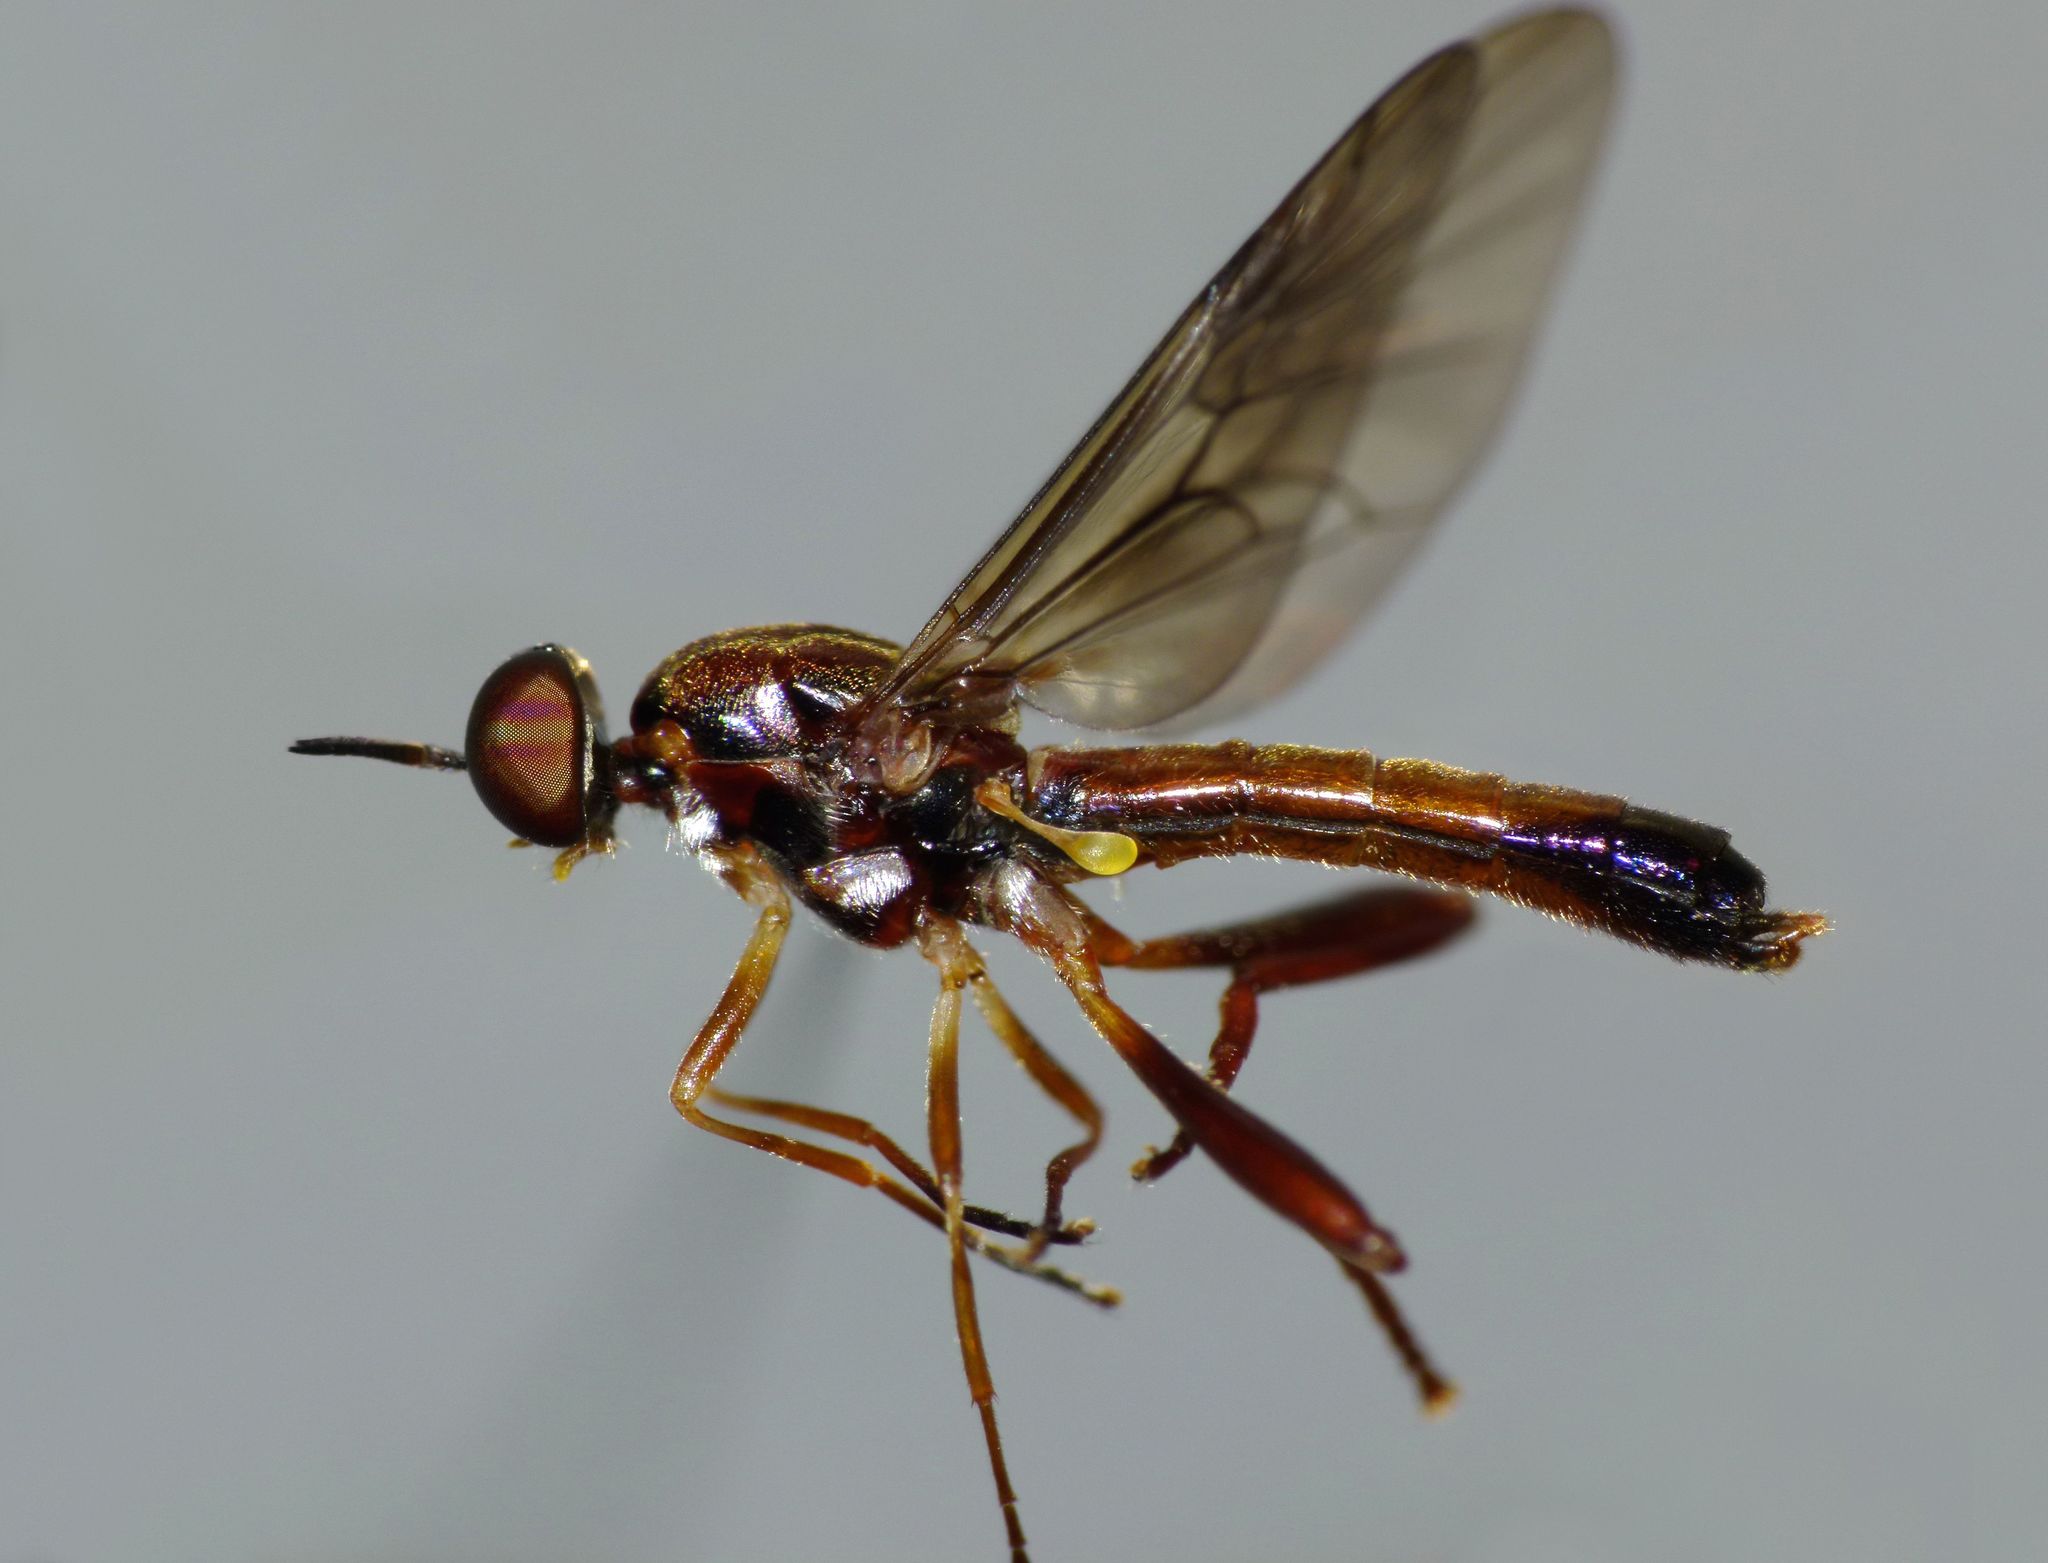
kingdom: Animalia
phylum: Arthropoda
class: Insecta
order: Diptera
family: Stratiomyidae
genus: Benhamyia
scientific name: Benhamyia straznitzkii
